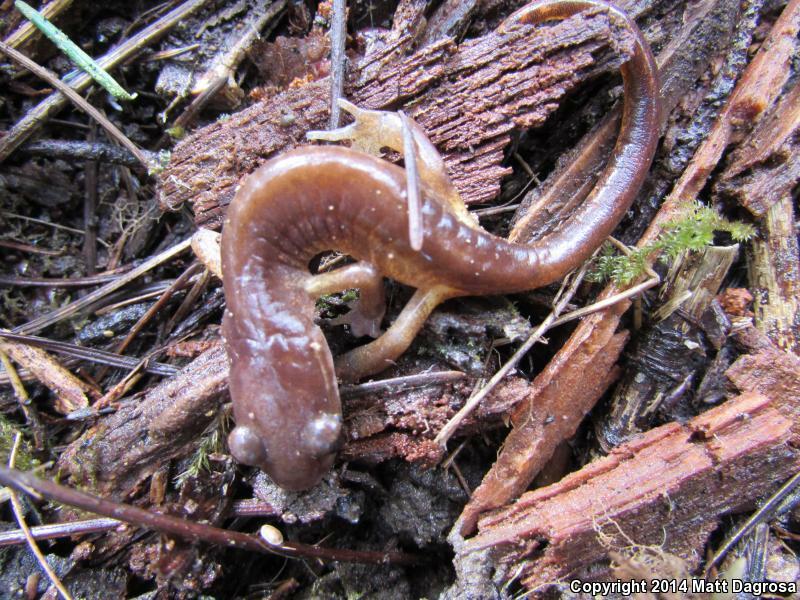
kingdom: Animalia
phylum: Chordata
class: Amphibia
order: Caudata
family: Plethodontidae
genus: Ensatina
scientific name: Ensatina eschscholtzii
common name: Ensatina
